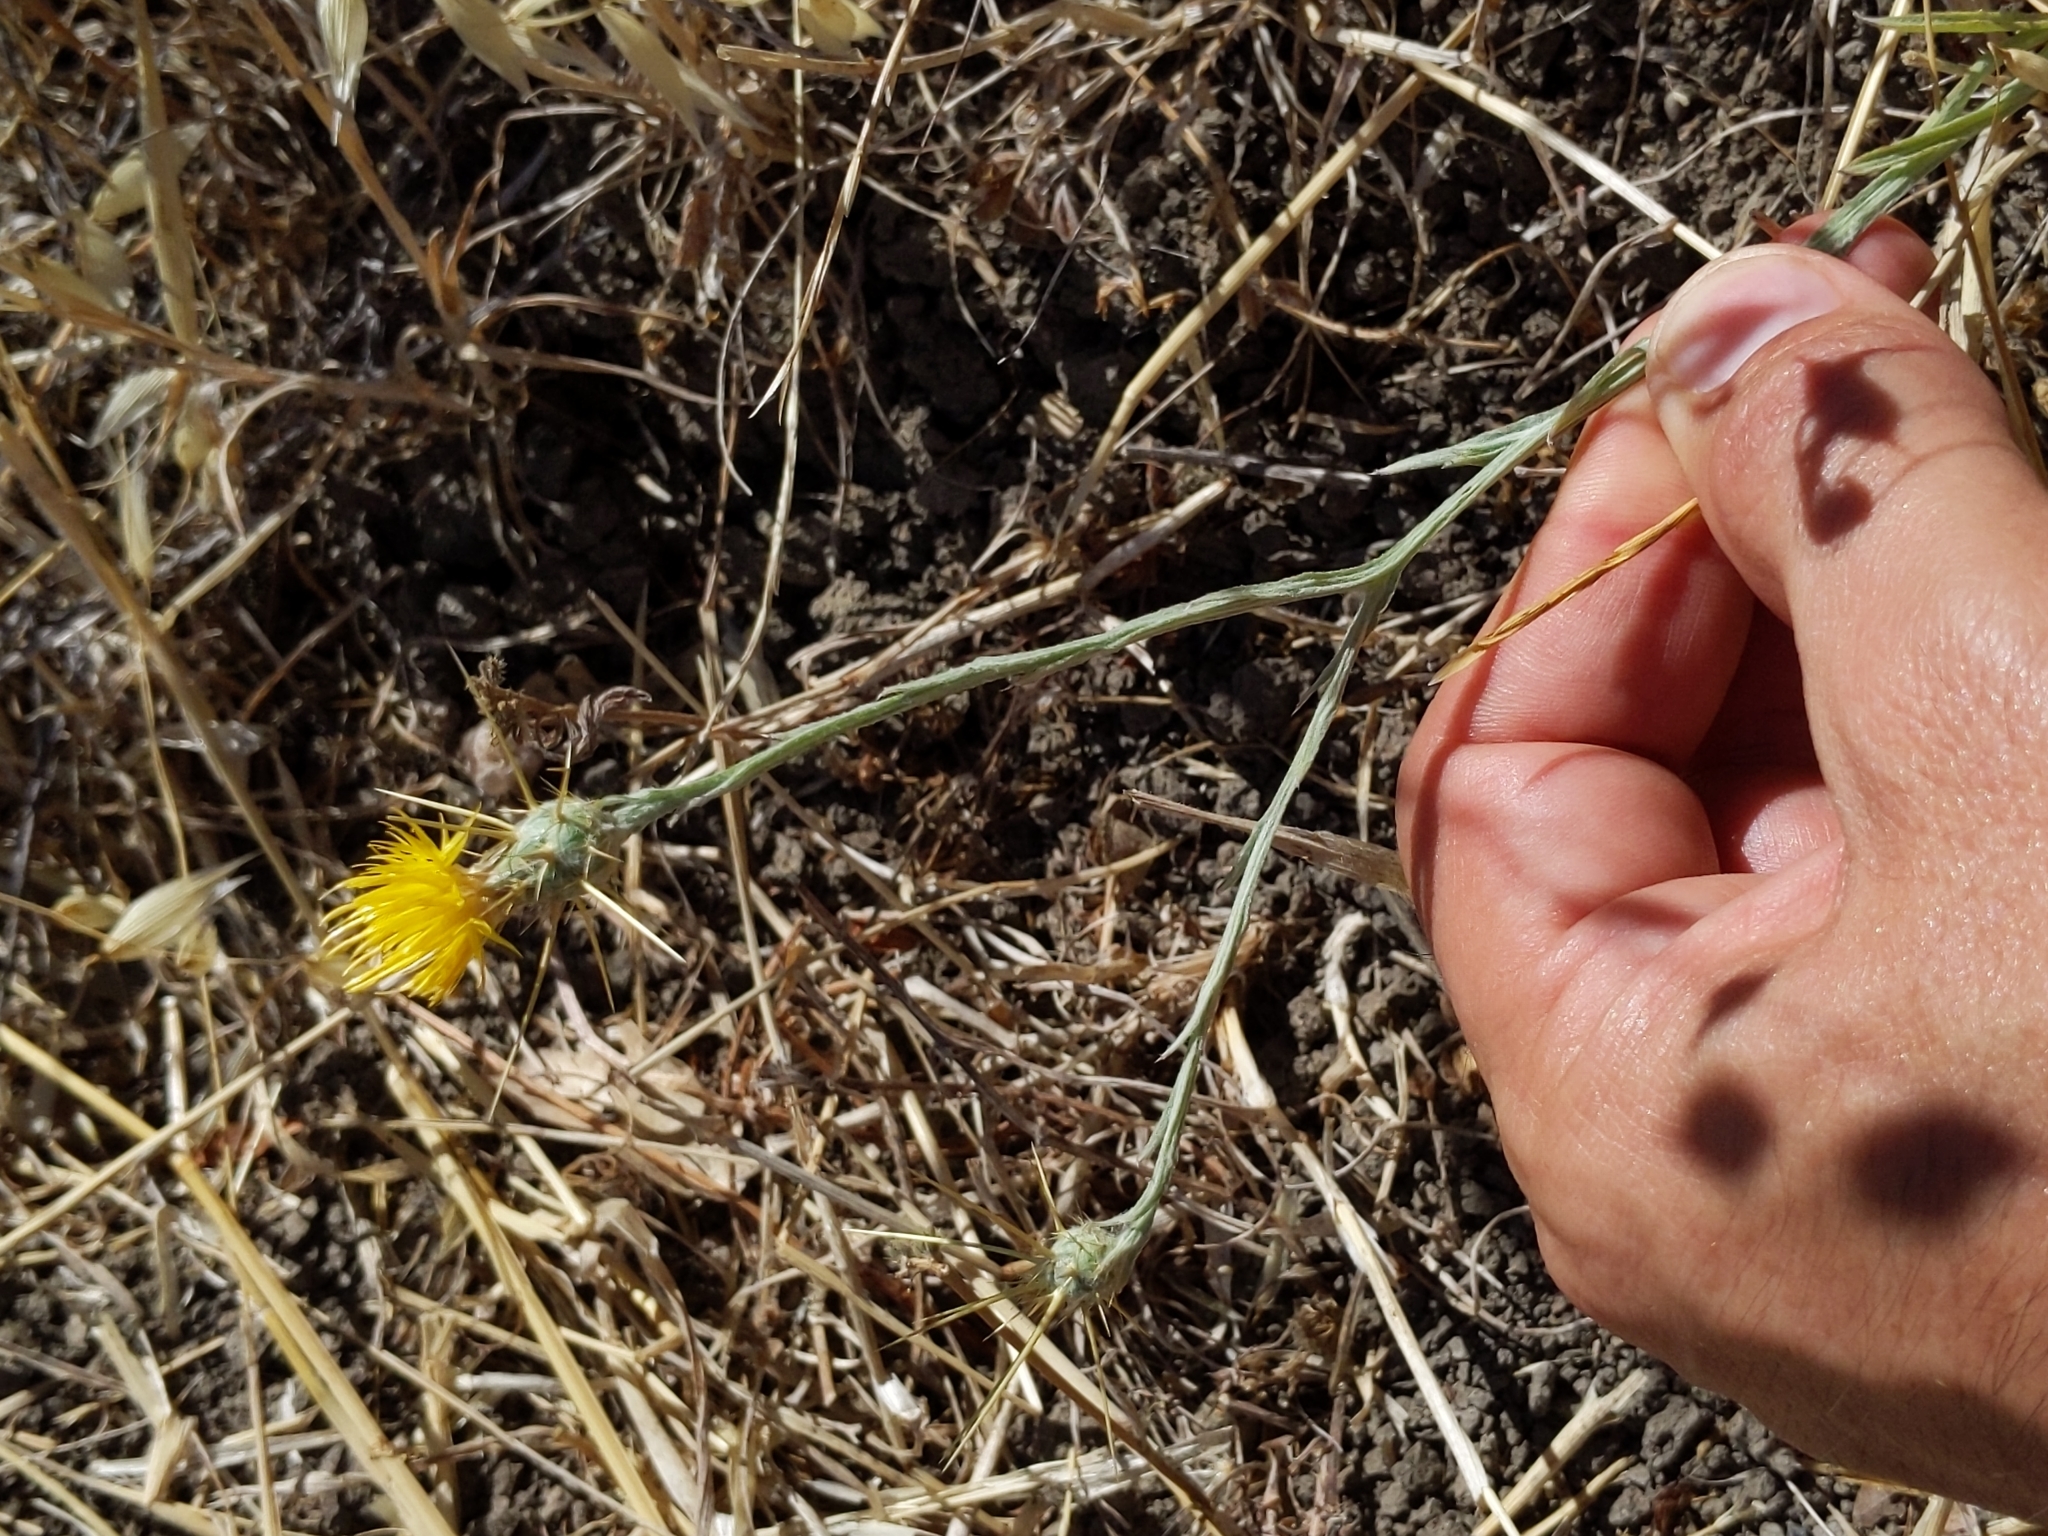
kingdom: Plantae
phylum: Tracheophyta
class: Magnoliopsida
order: Asterales
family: Asteraceae
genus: Centaurea
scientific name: Centaurea solstitialis
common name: Yellow star-thistle
